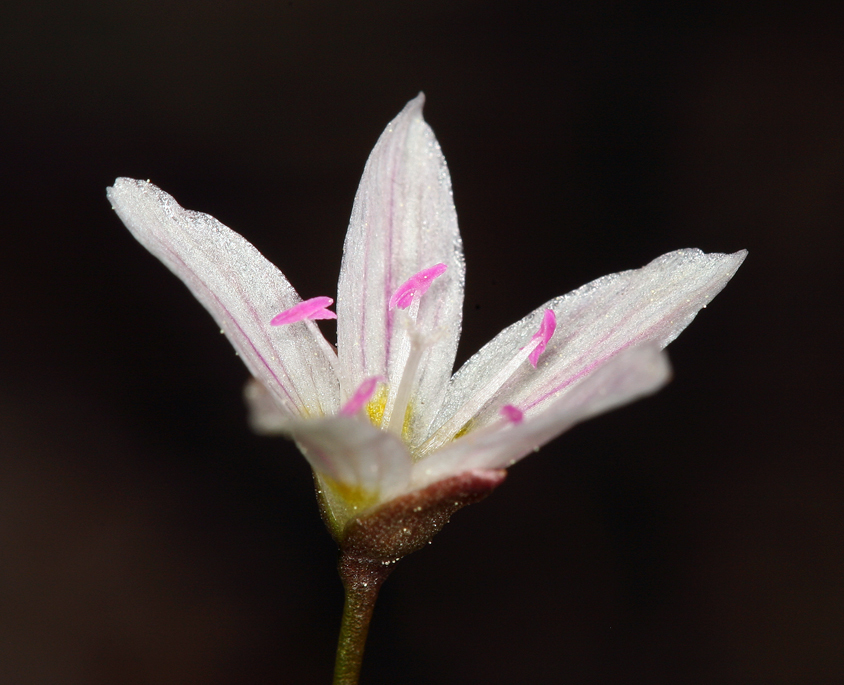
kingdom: Plantae
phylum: Tracheophyta
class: Magnoliopsida
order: Caryophyllales
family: Montiaceae
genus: Claytonia
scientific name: Claytonia lanceolata
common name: Western spring-beauty
